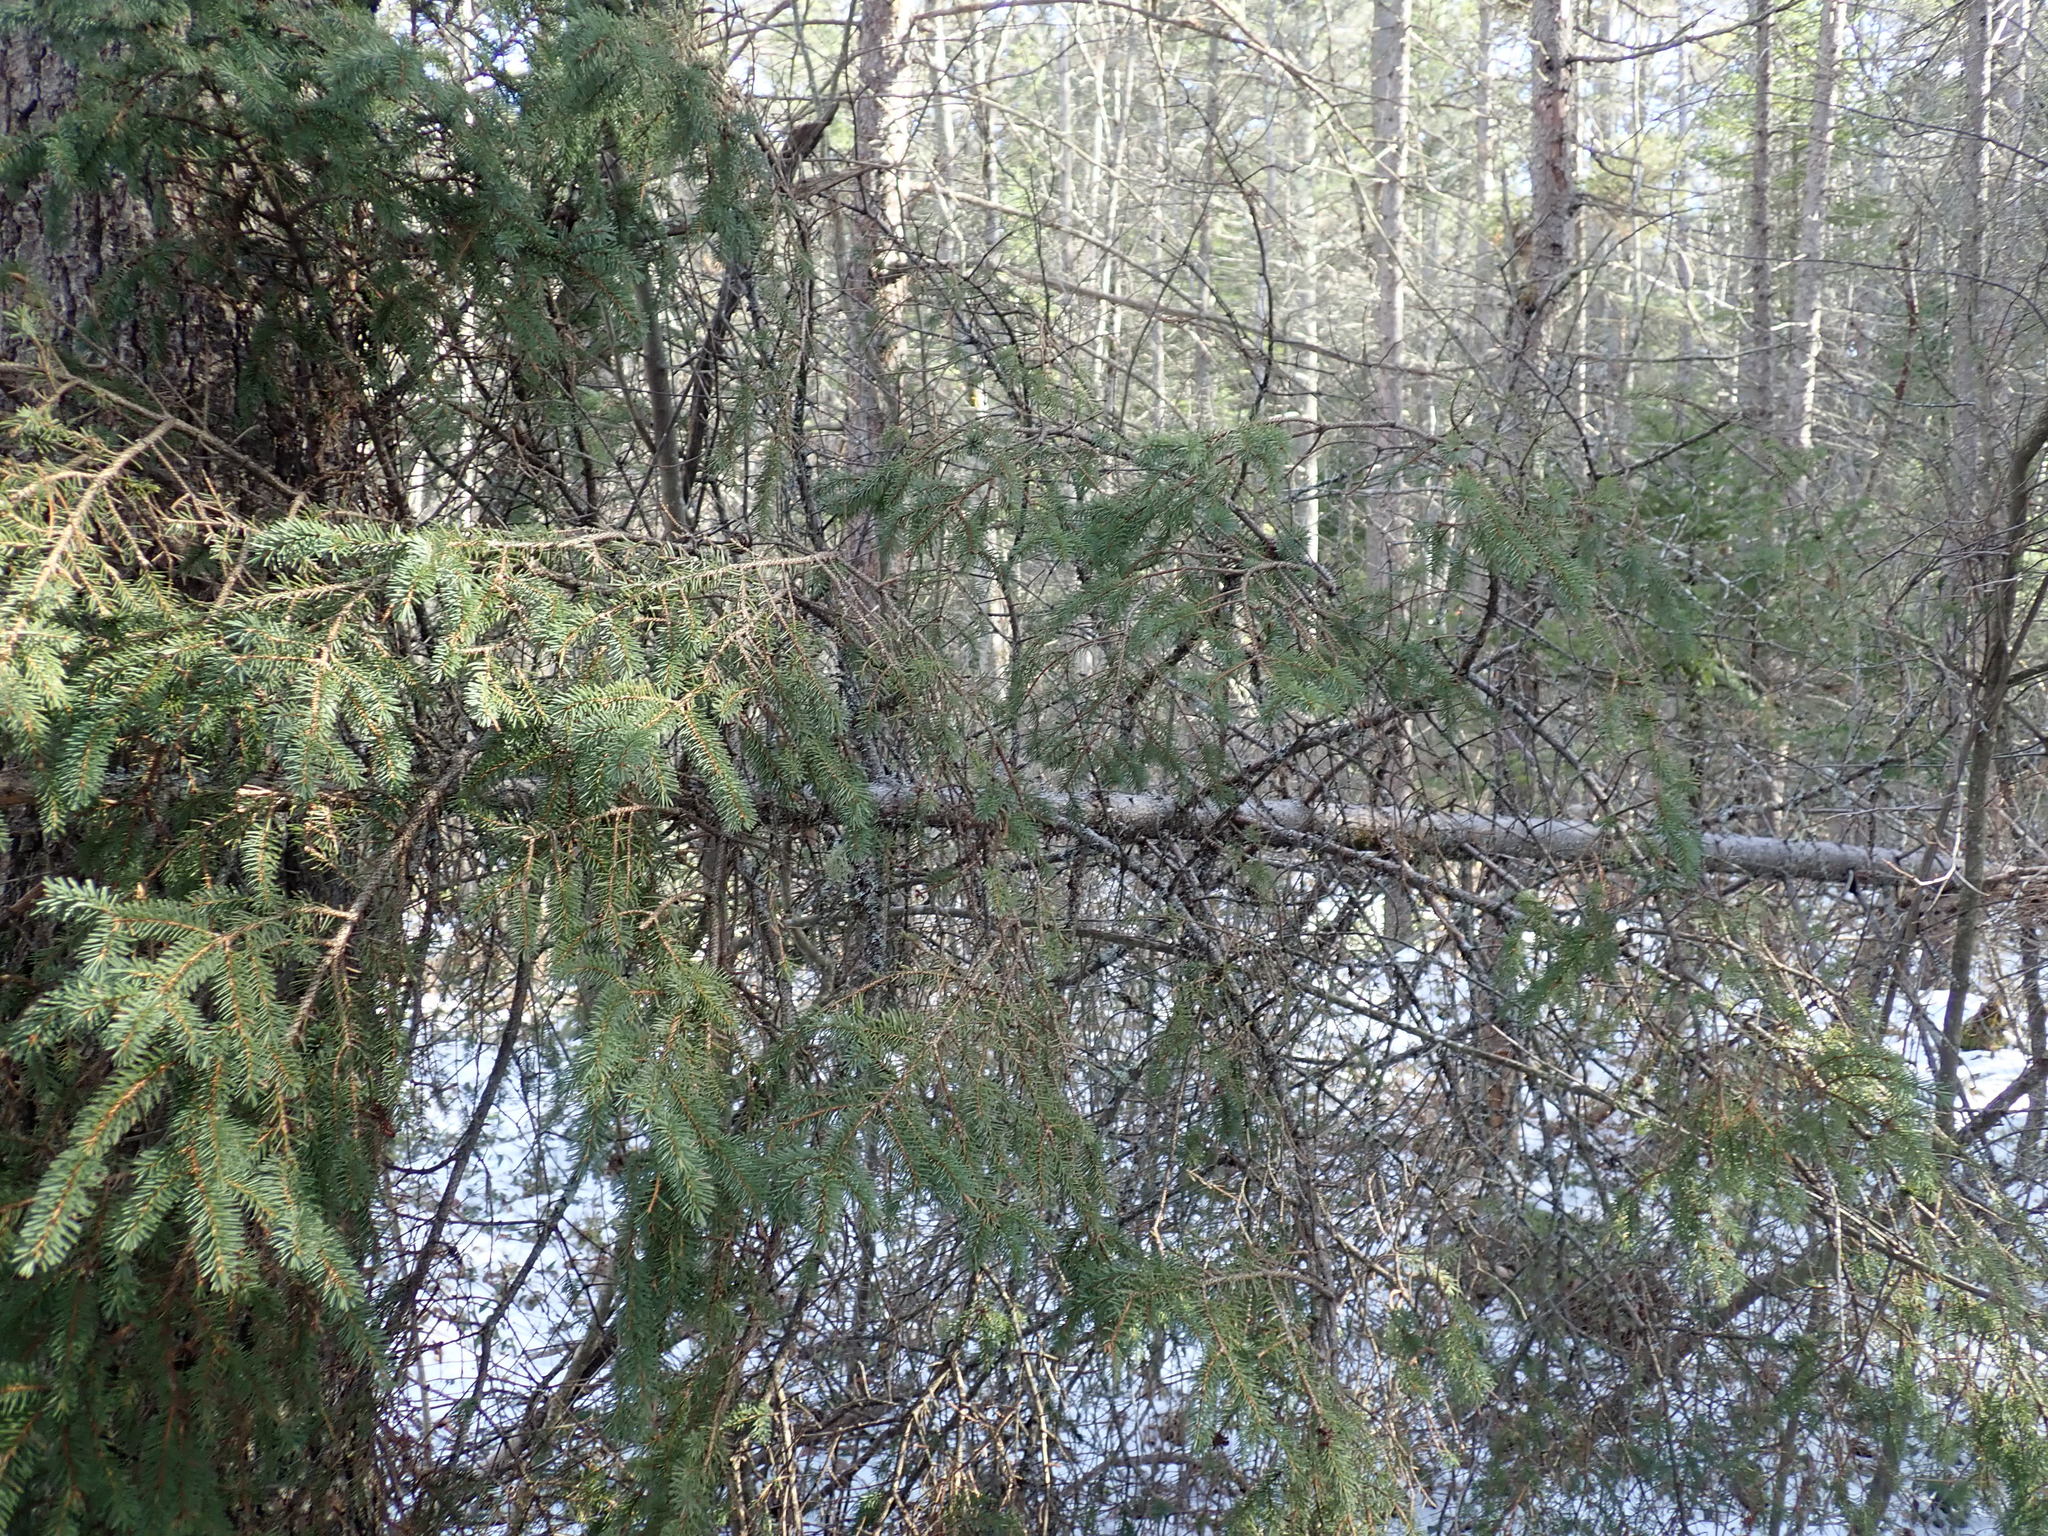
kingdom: Plantae
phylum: Tracheophyta
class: Pinopsida
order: Pinales
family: Pinaceae
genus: Picea
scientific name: Picea mariana
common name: Black spruce
